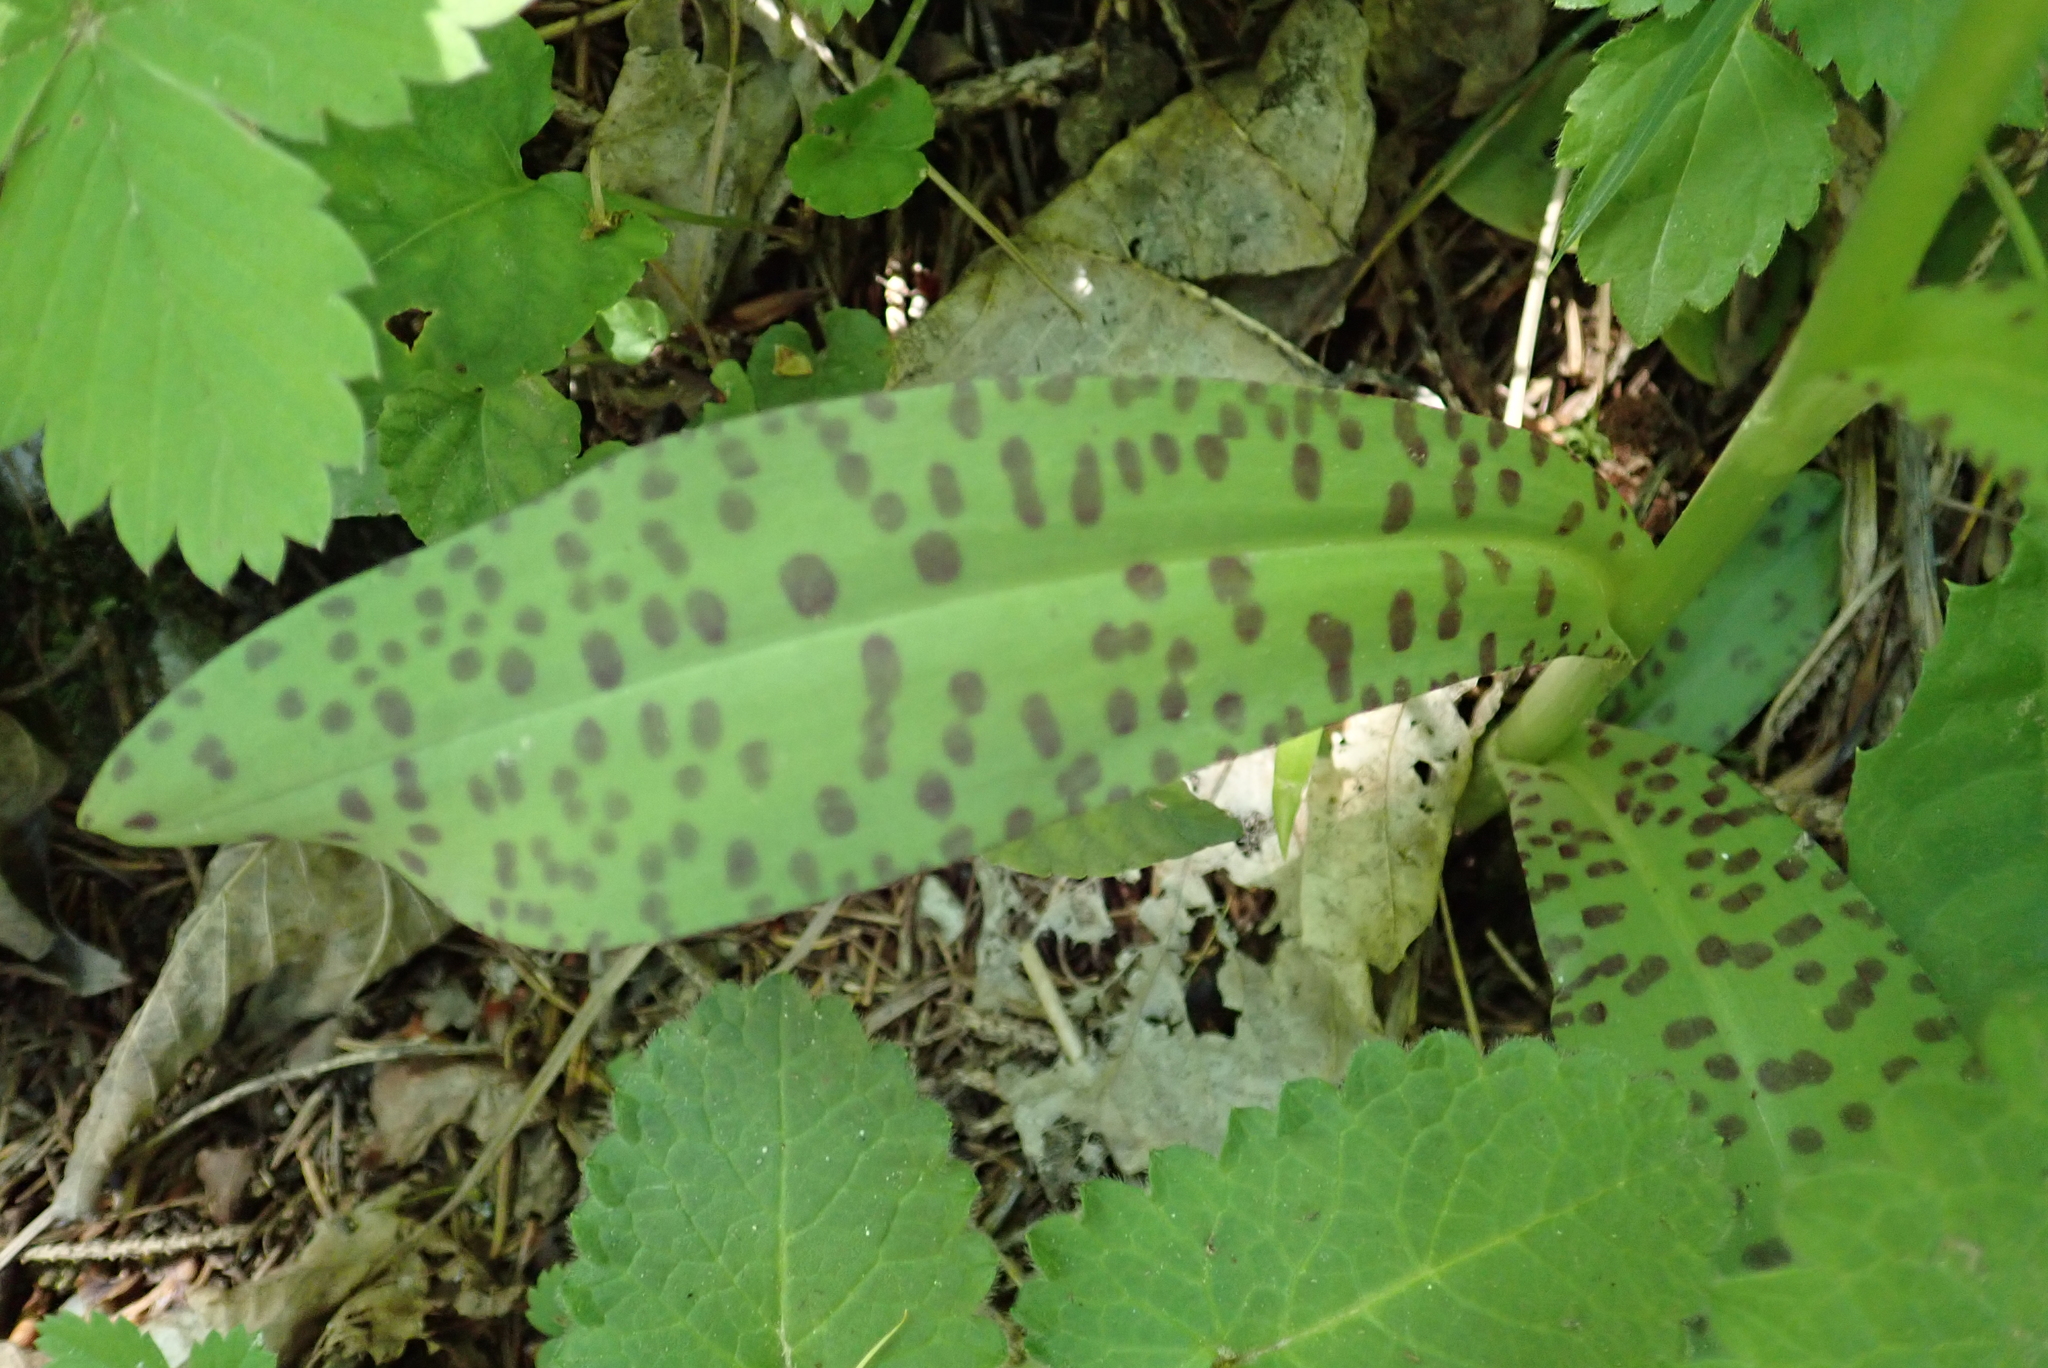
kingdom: Plantae
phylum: Tracheophyta
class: Liliopsida
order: Asparagales
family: Orchidaceae
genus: Dactylorhiza
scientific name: Dactylorhiza maculata
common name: Heath spotted-orchid
